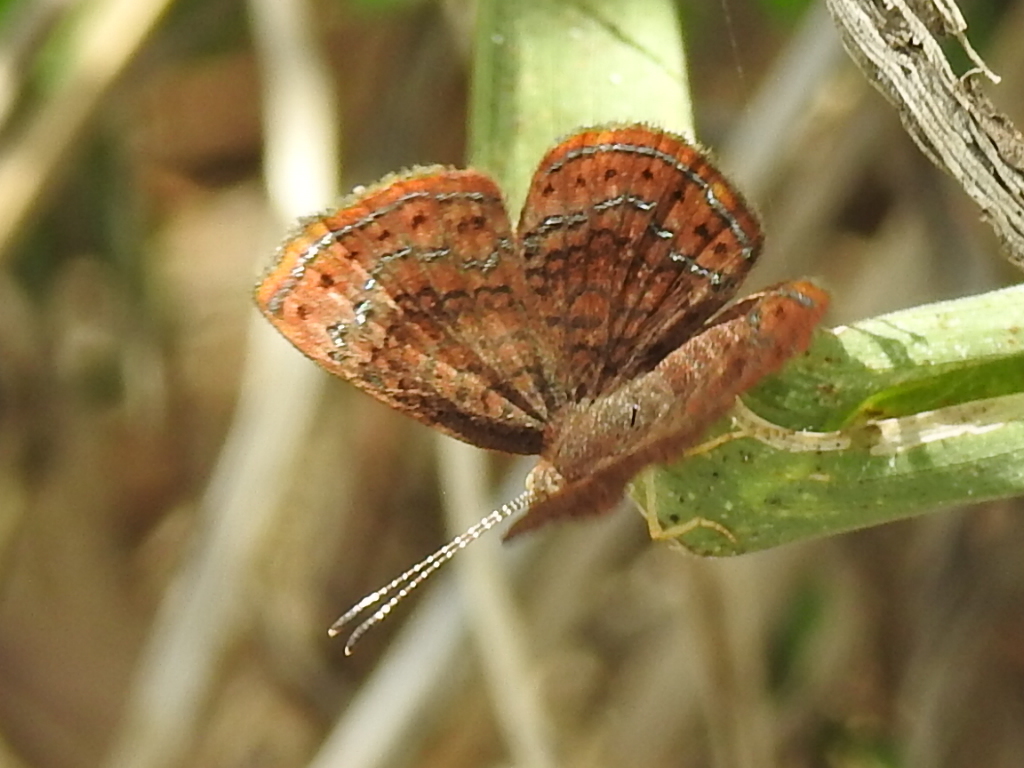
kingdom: Animalia
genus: Calephelis
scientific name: Calephelis perditalis
